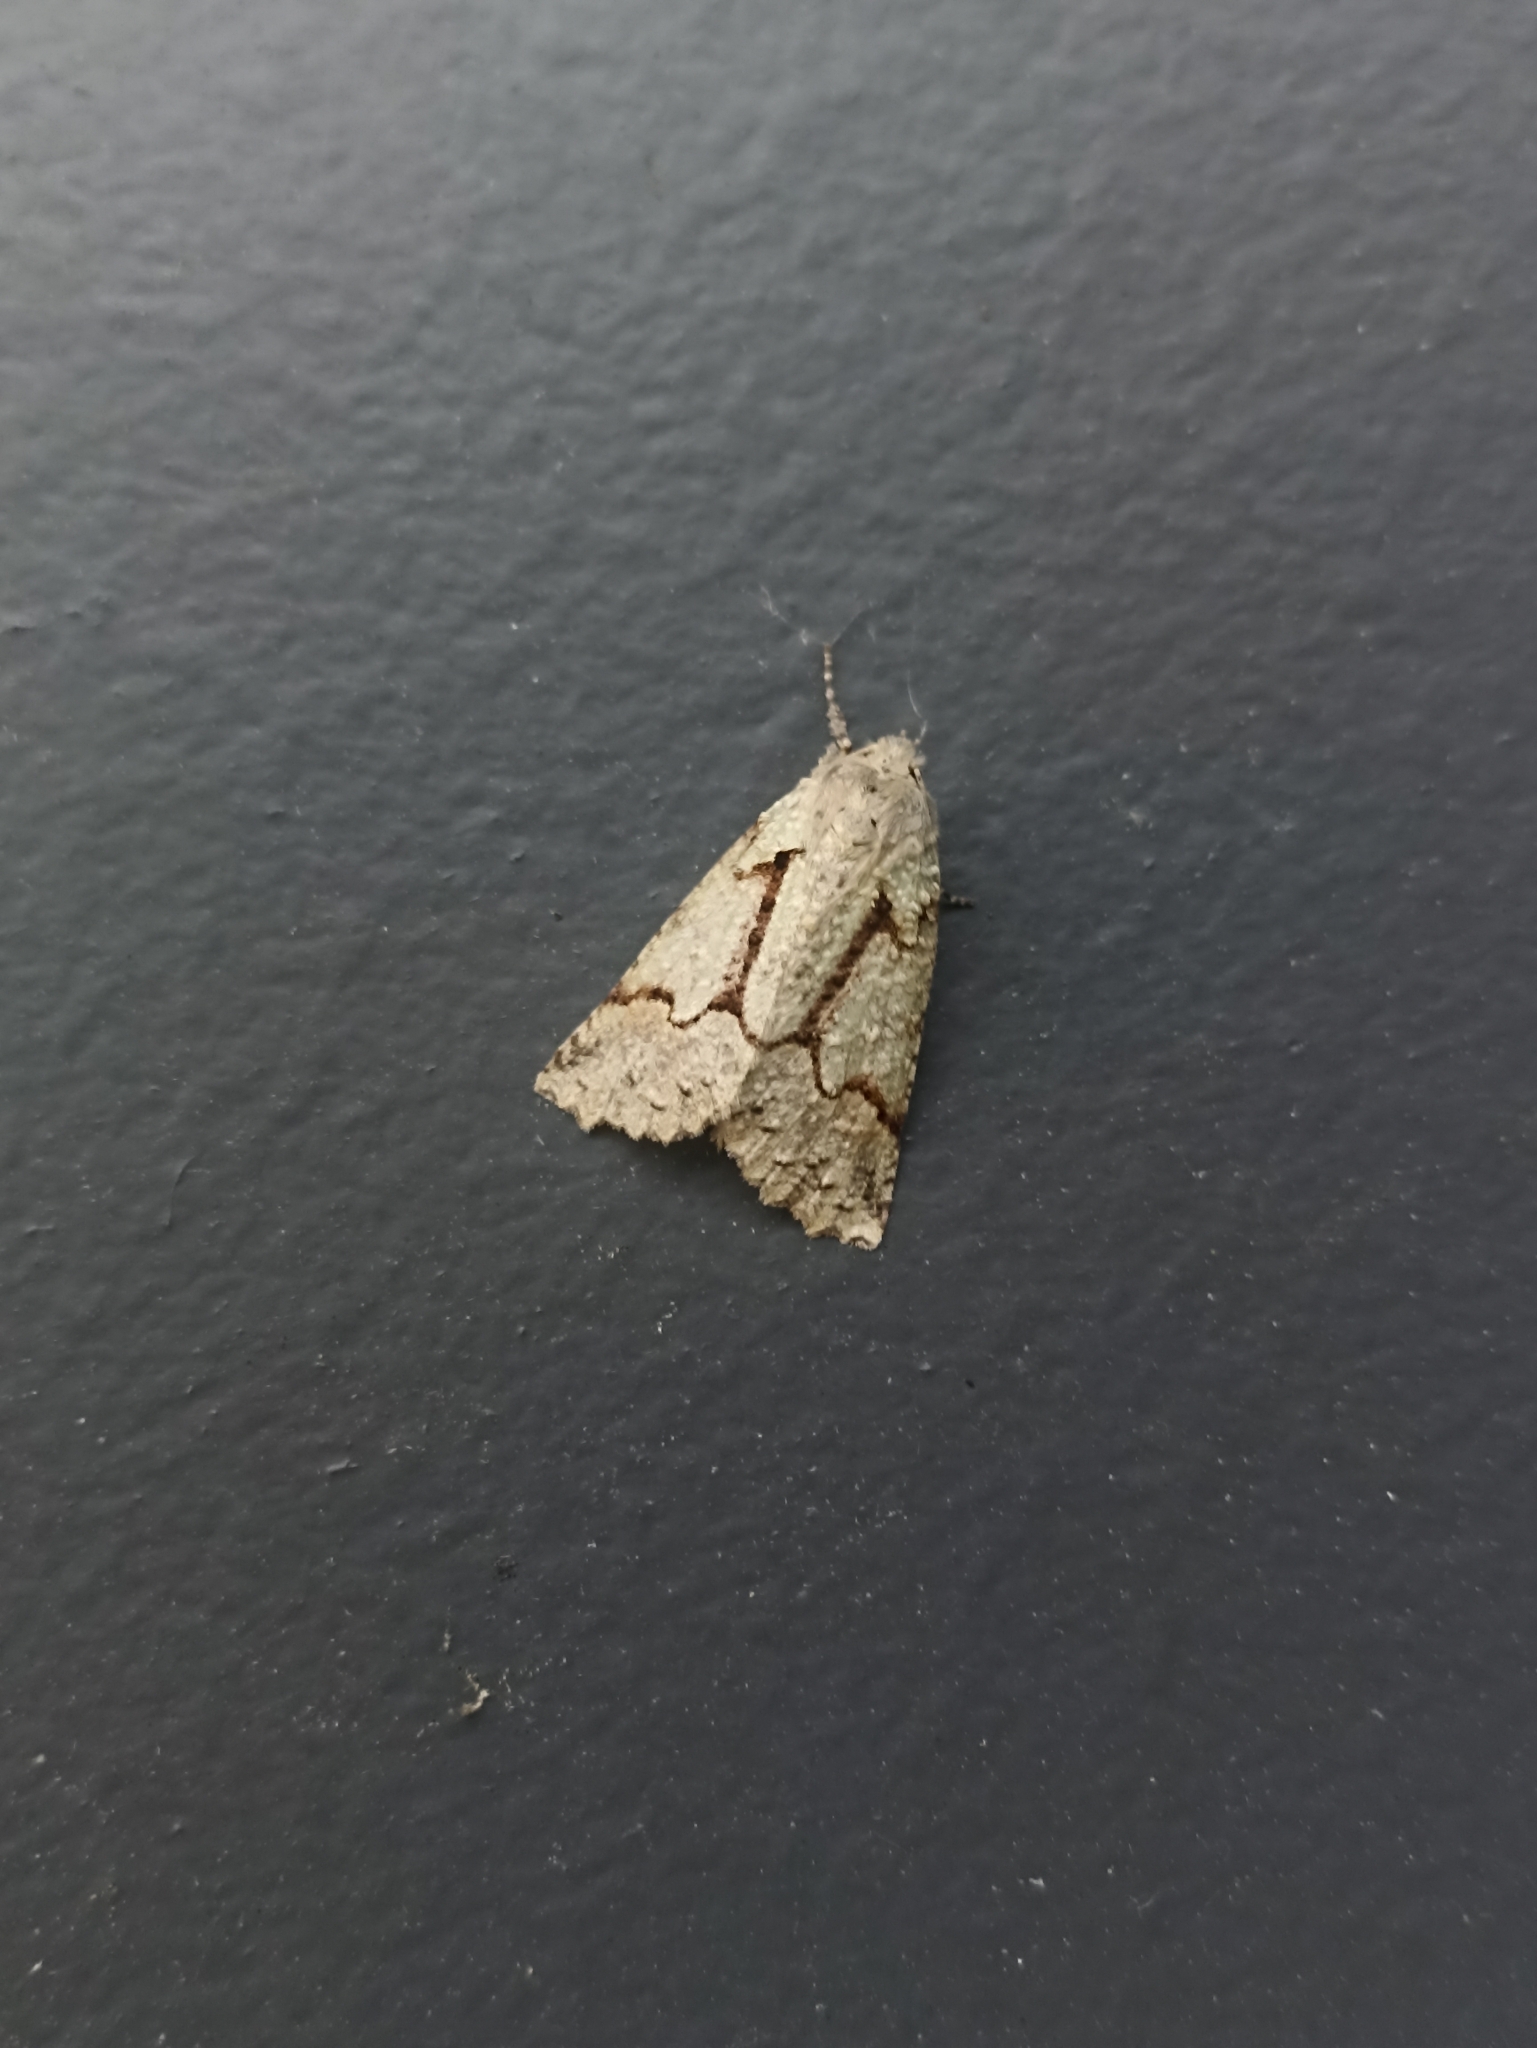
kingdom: Animalia
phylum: Arthropoda
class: Insecta
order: Lepidoptera
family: Geometridae
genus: Declana
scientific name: Declana floccosa
